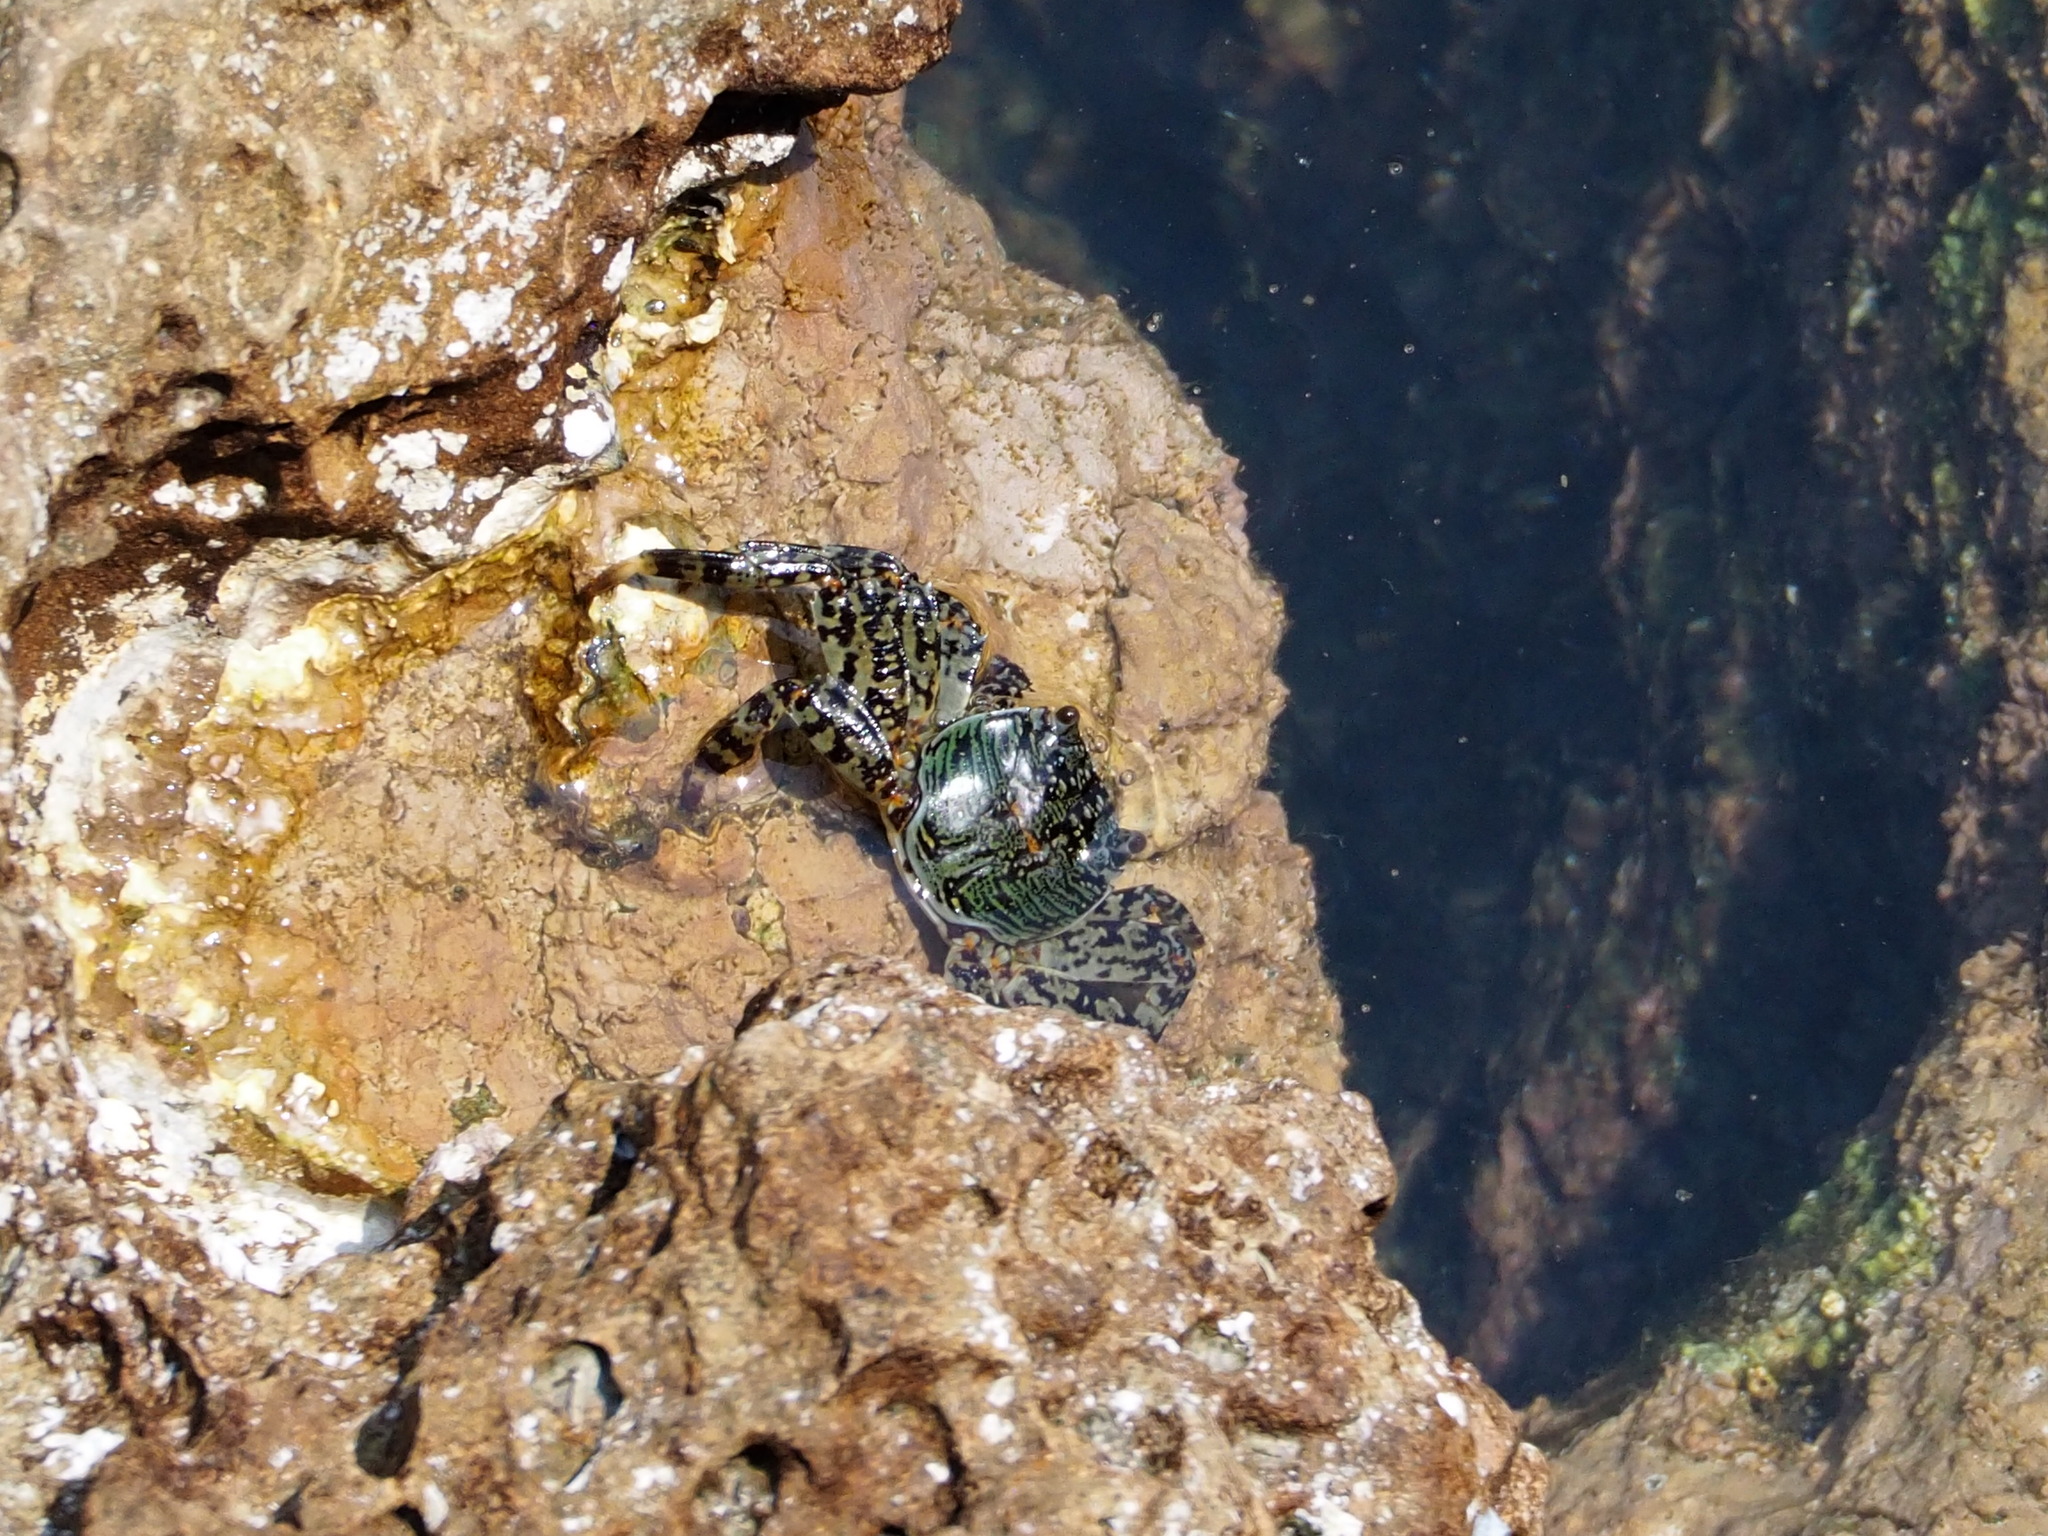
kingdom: Animalia
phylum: Arthropoda
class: Malacostraca
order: Decapoda
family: Grapsidae
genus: Grapsus
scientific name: Grapsus albolineatus
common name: Mottled lightfoot crab
